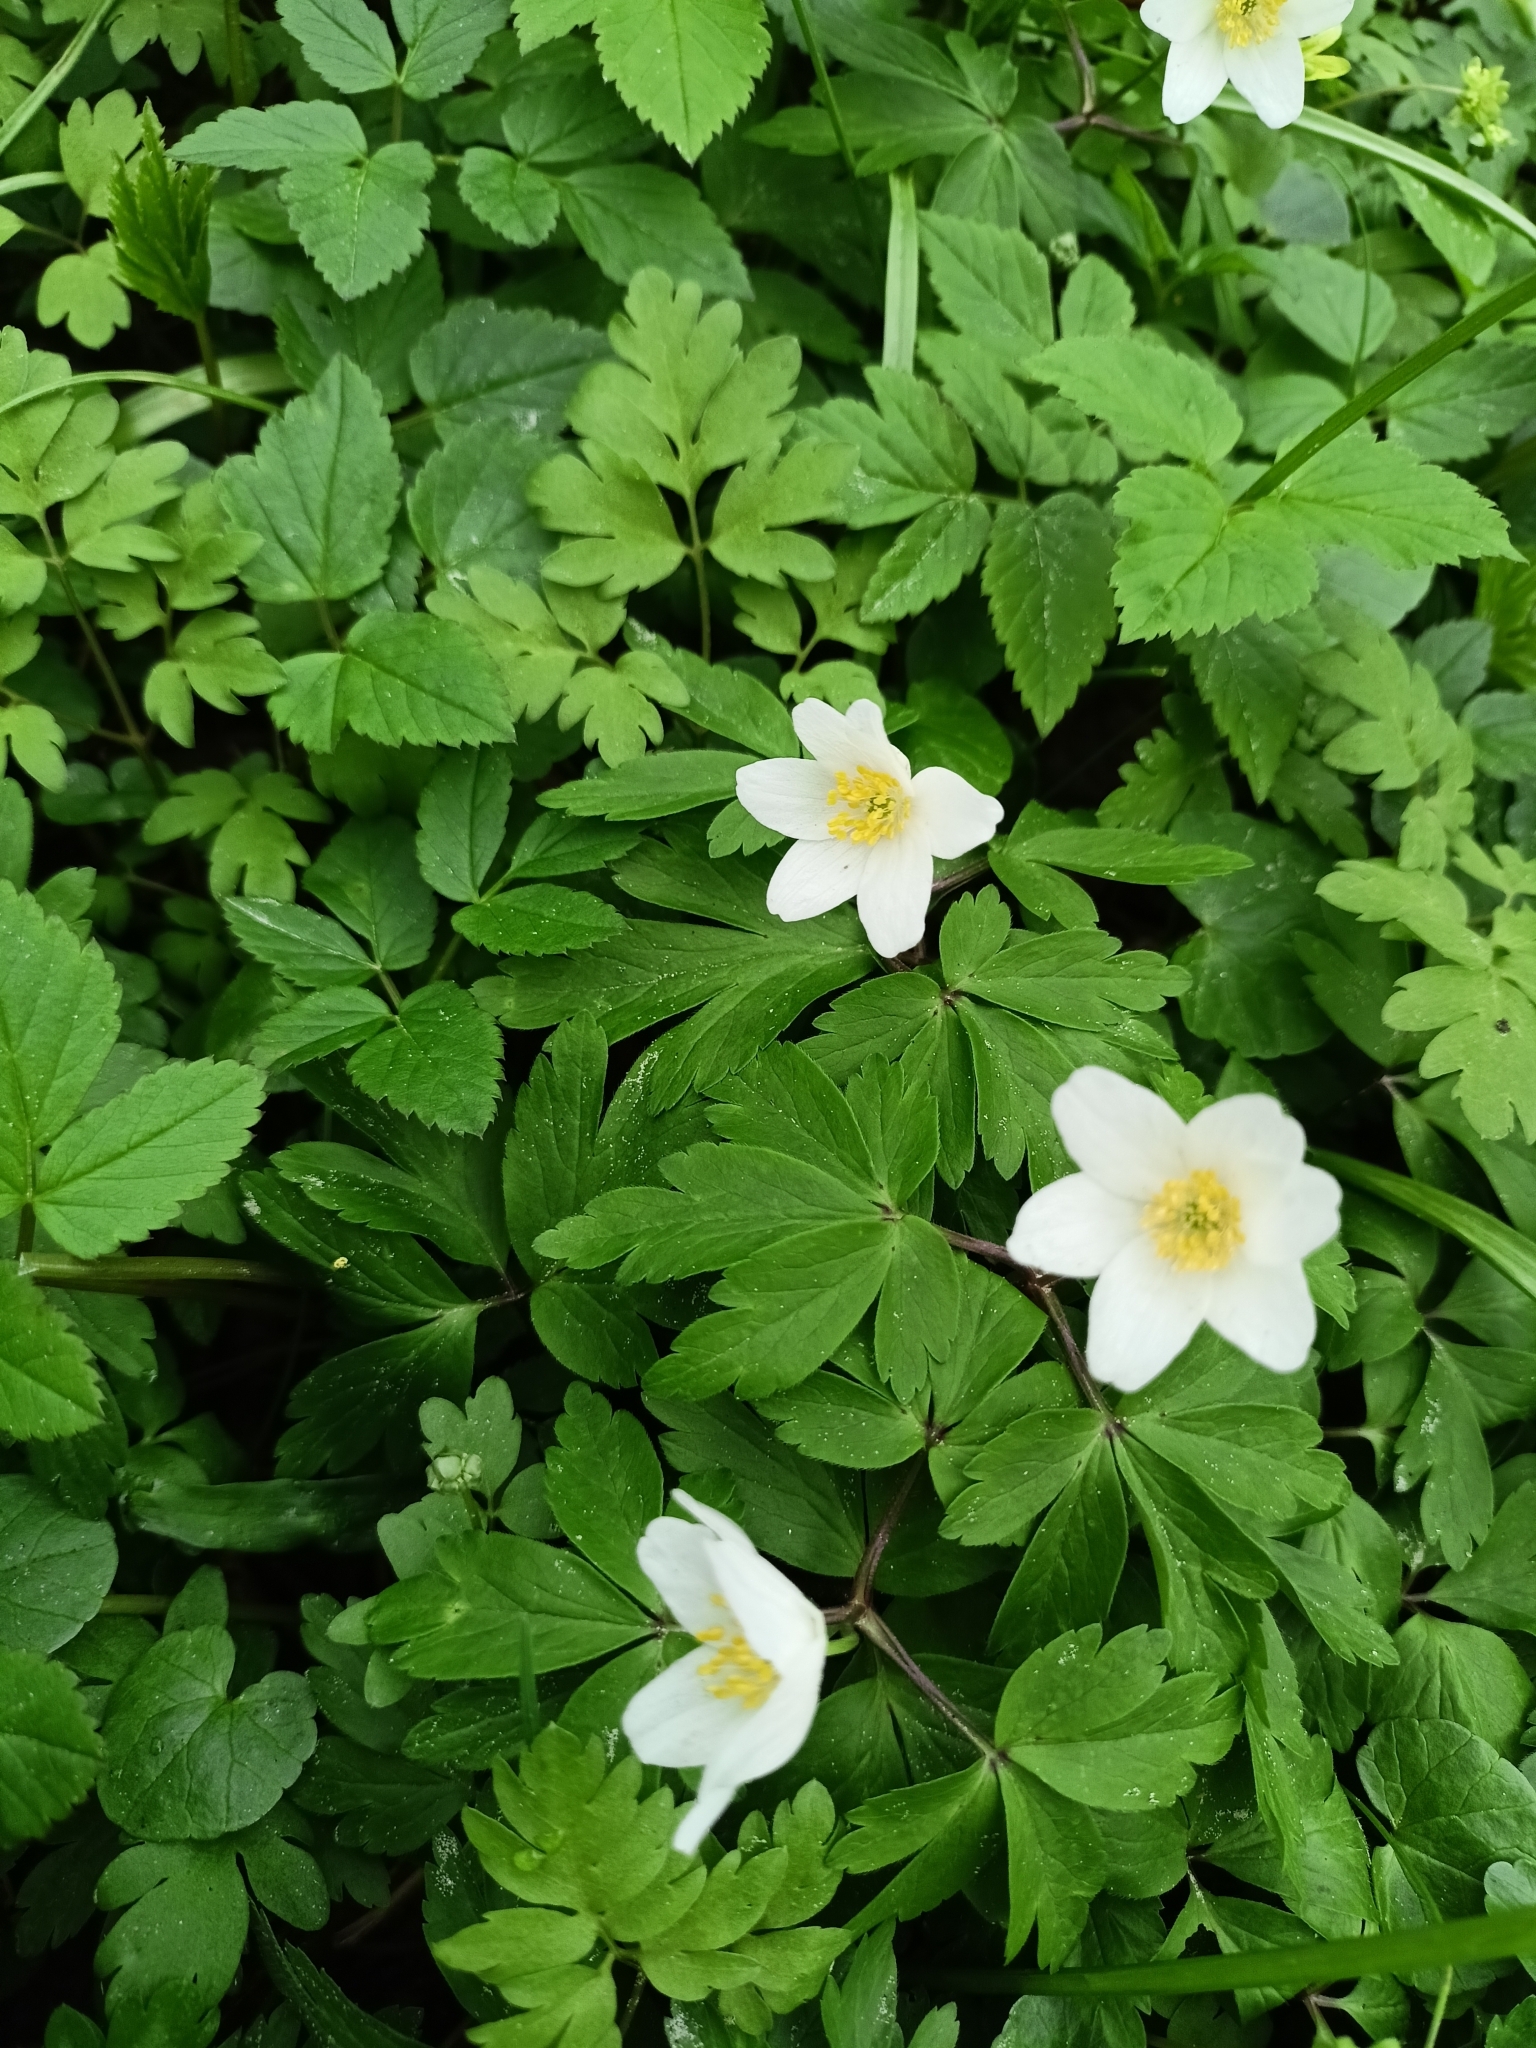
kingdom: Plantae
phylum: Tracheophyta
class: Magnoliopsida
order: Ranunculales
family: Ranunculaceae
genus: Anemone
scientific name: Anemone nemorosa
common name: Wood anemone
